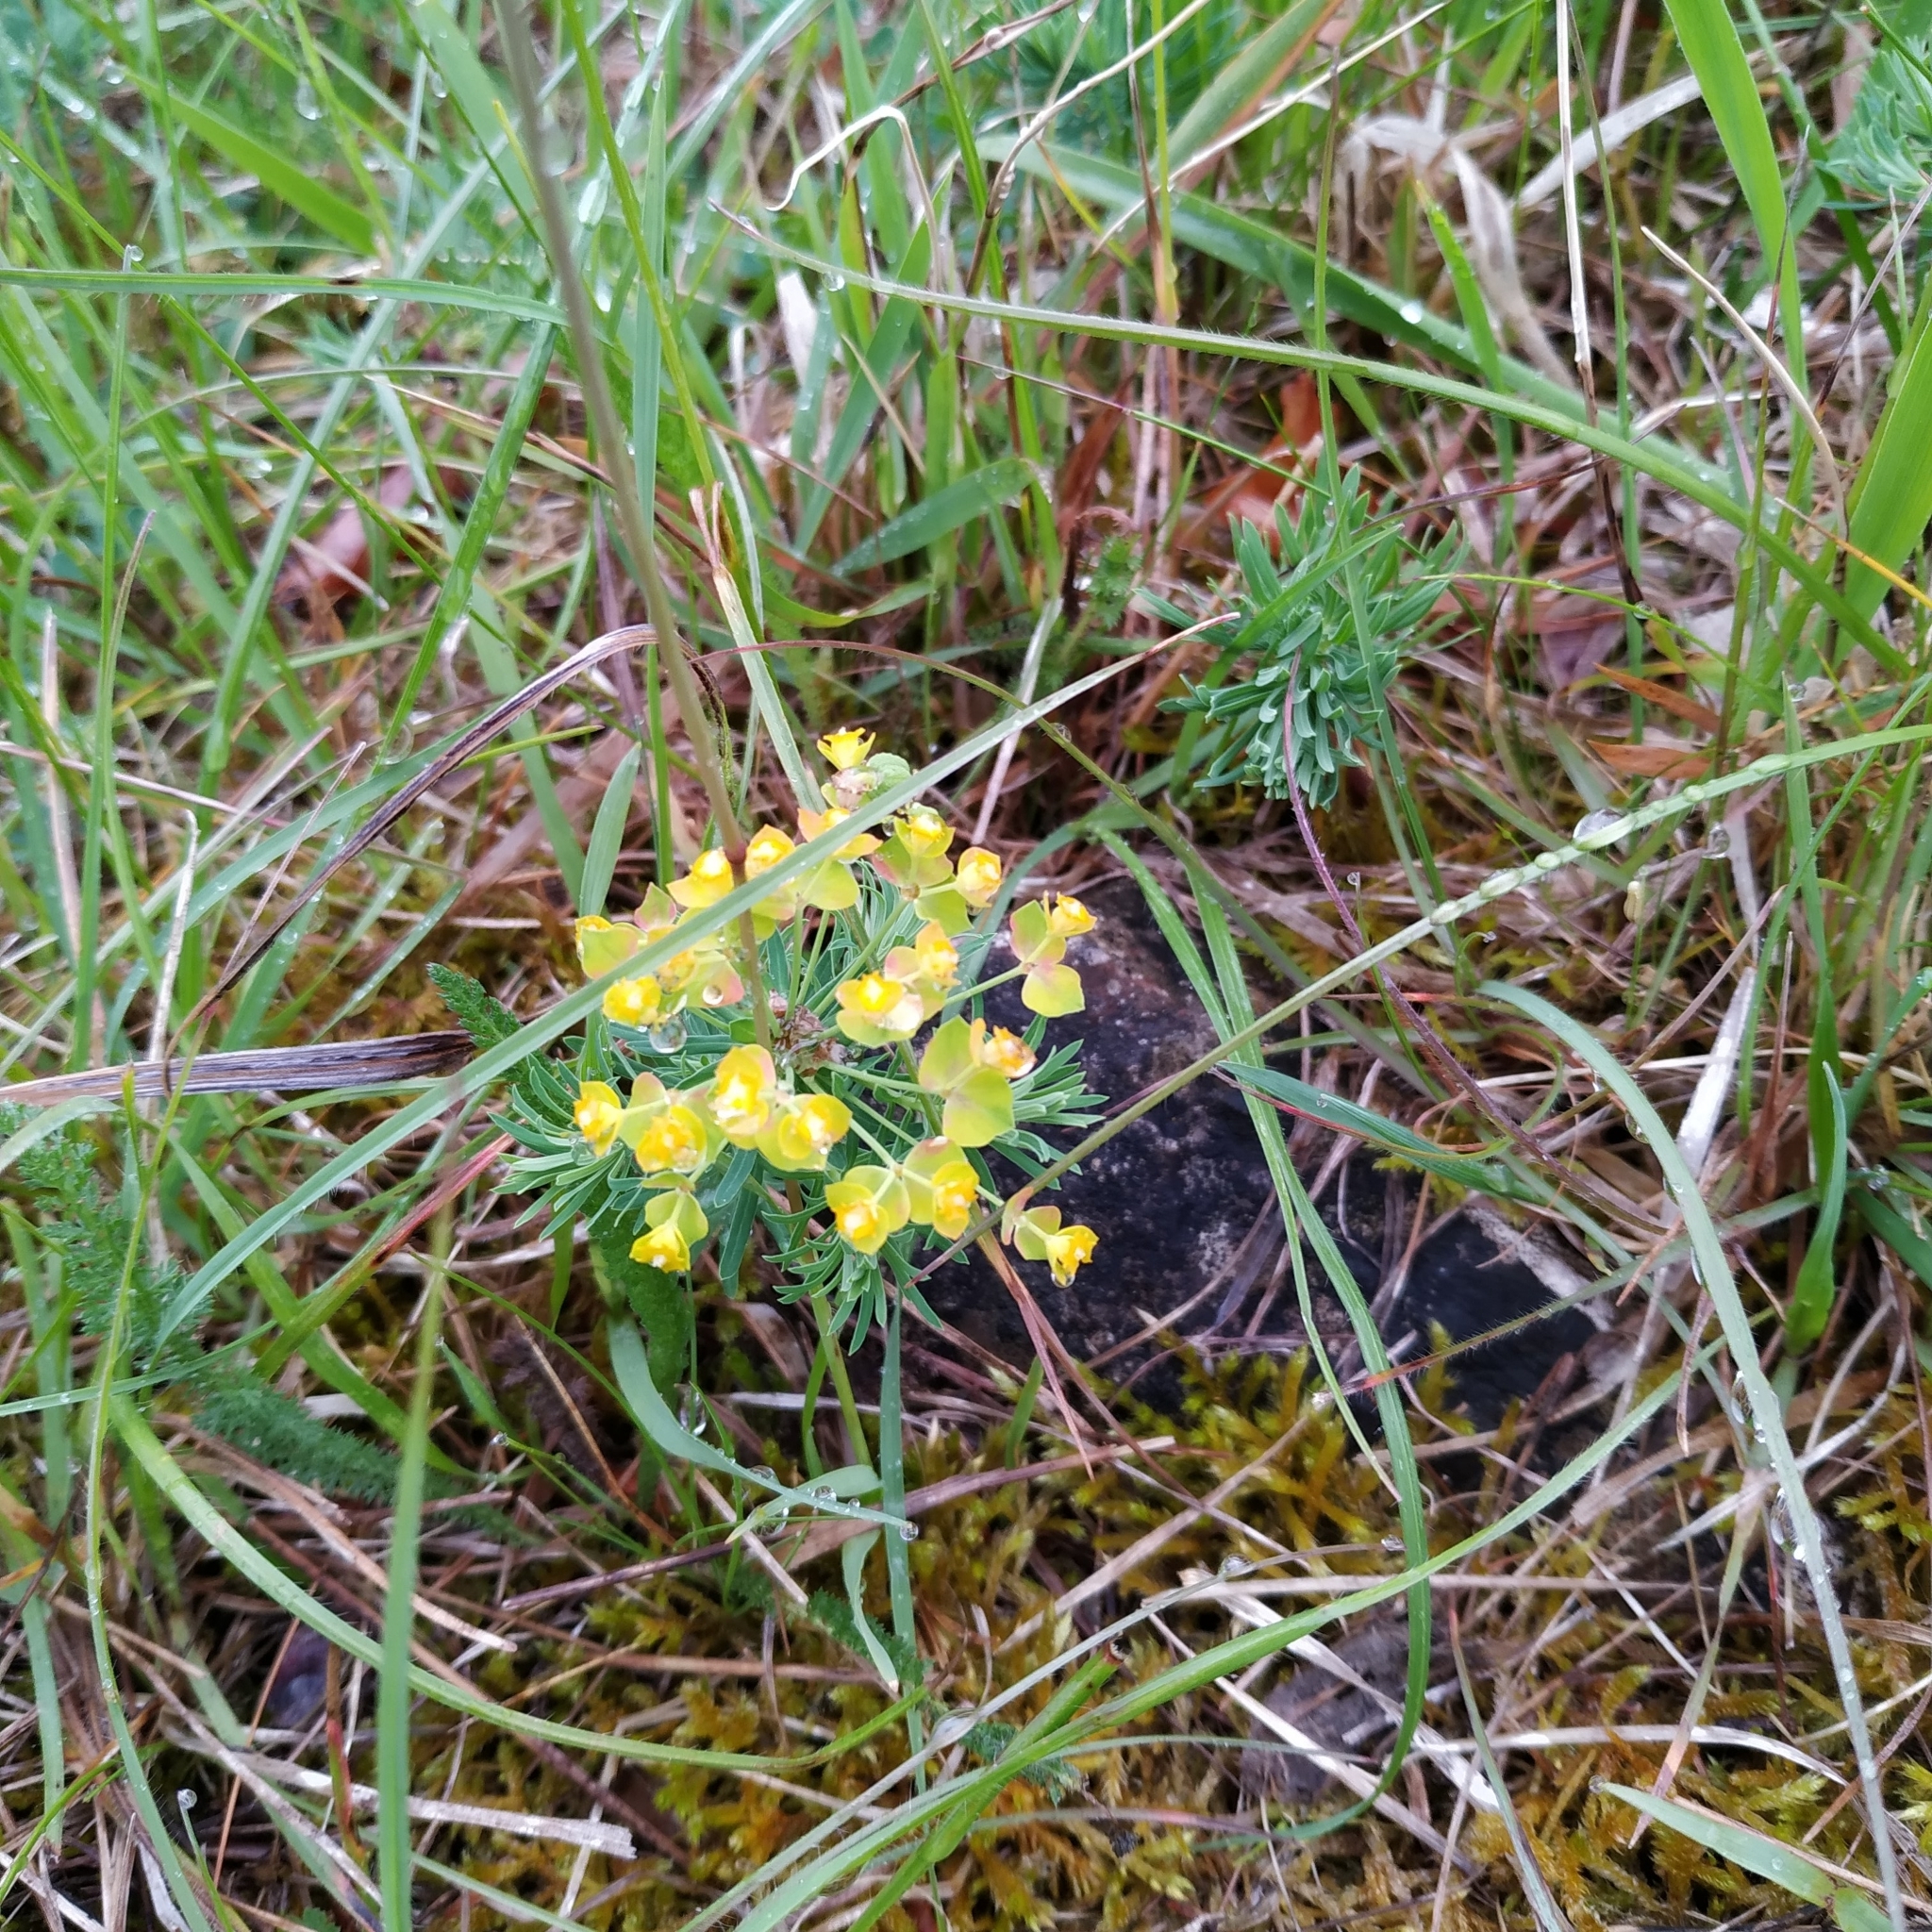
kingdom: Plantae
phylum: Tracheophyta
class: Magnoliopsida
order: Malpighiales
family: Euphorbiaceae
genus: Euphorbia
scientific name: Euphorbia cyparissias
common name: Cypress spurge
